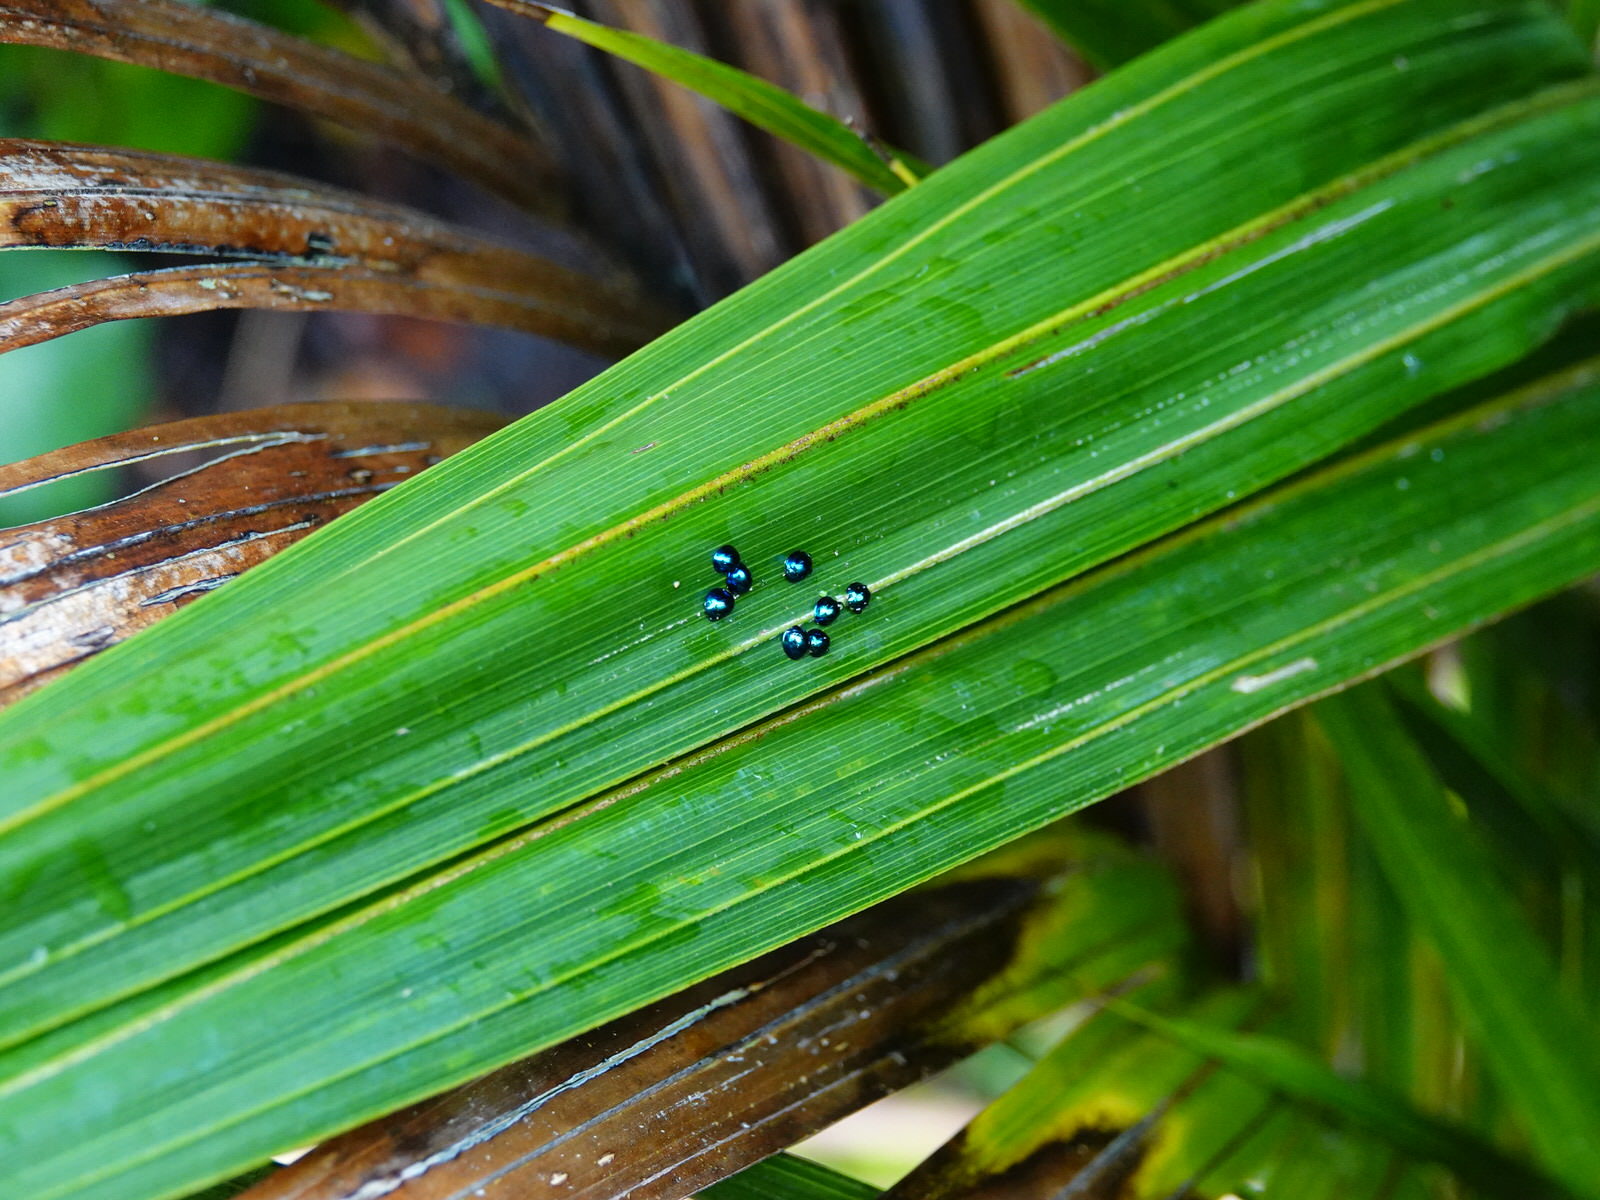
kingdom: Animalia
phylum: Arthropoda
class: Insecta
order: Coleoptera
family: Coccinellidae
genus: Halmus
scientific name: Halmus chalybeus
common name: Steel blue ladybird beetle
